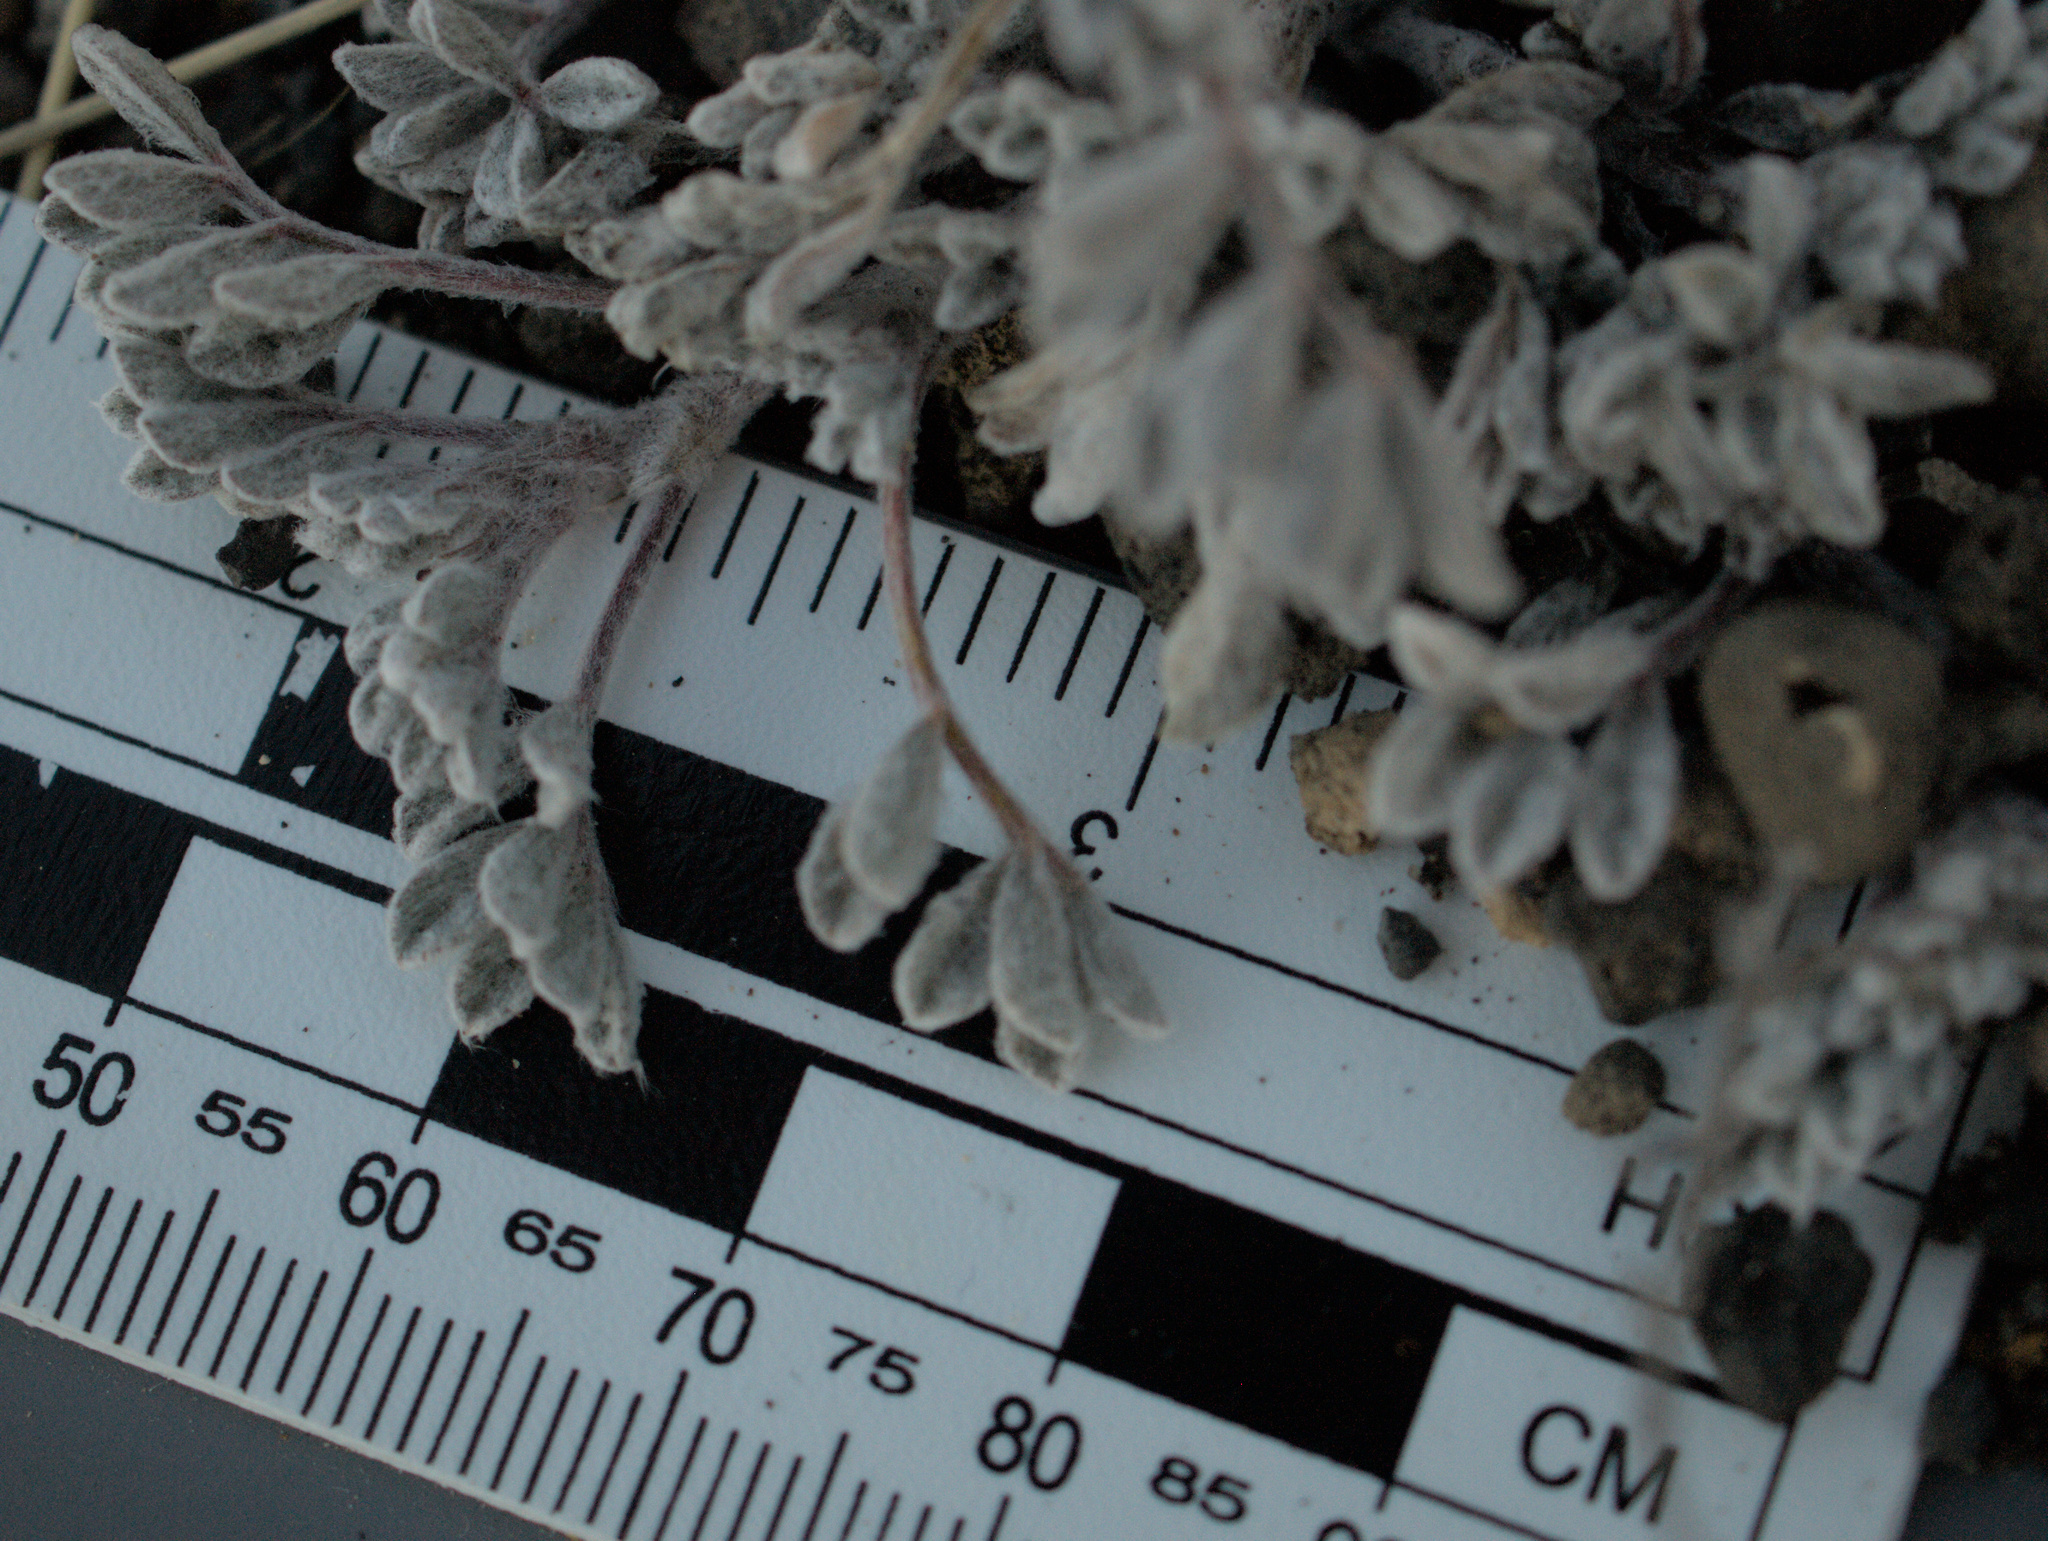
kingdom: Plantae
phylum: Tracheophyta
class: Magnoliopsida
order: Fabales
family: Fabaceae
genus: Astragalus
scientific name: Astragalus purshii
